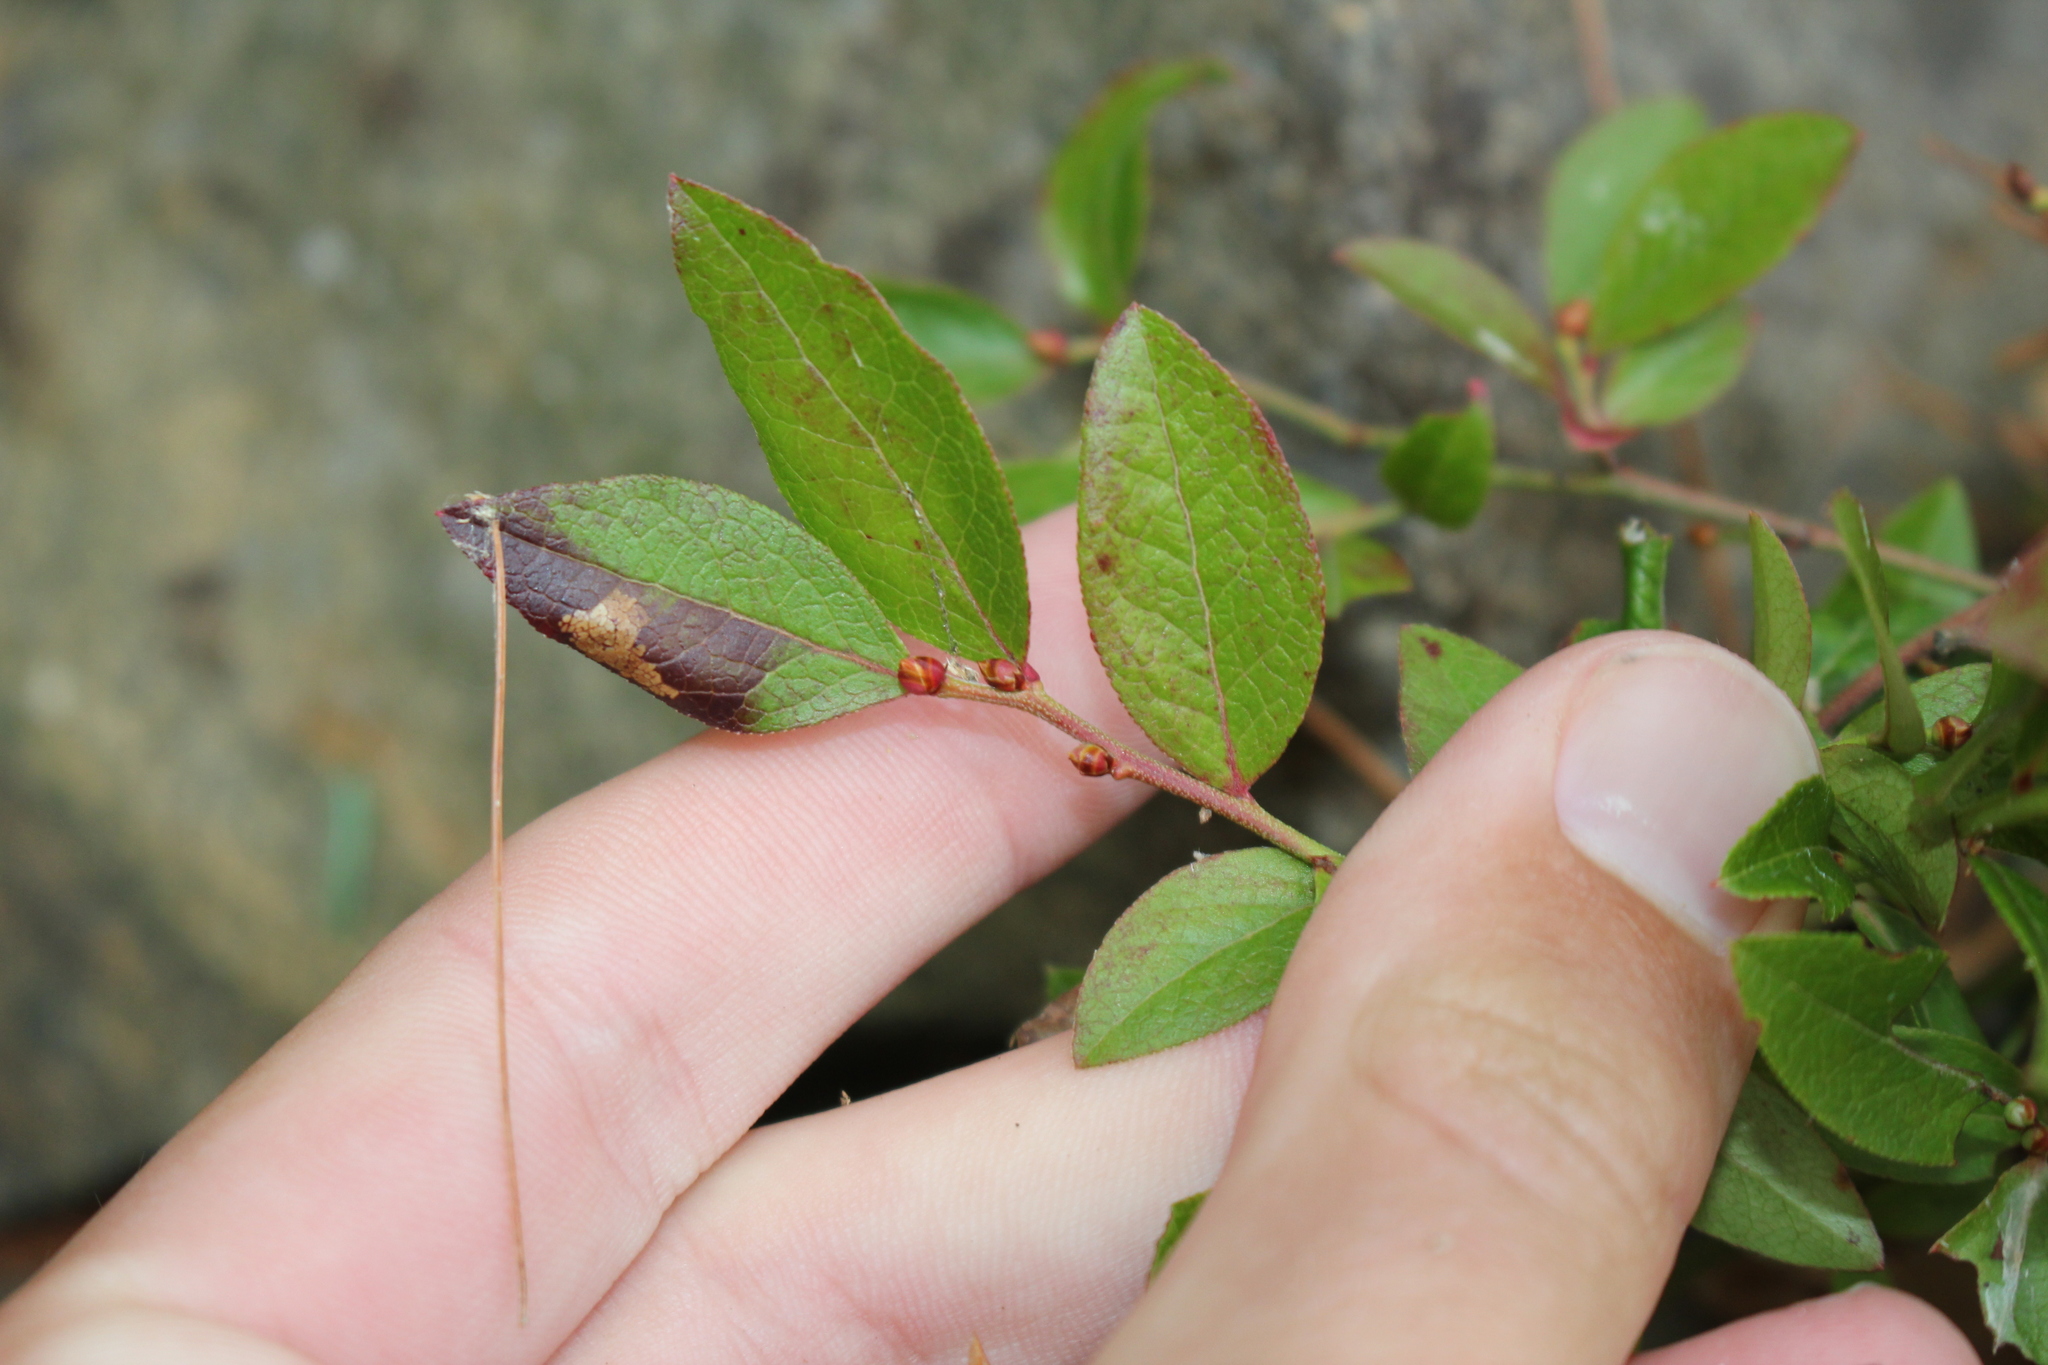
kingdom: Plantae
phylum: Tracheophyta
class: Magnoliopsida
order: Ericales
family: Ericaceae
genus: Vaccinium
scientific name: Vaccinium angustifolium
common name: Early lowbush blueberry
